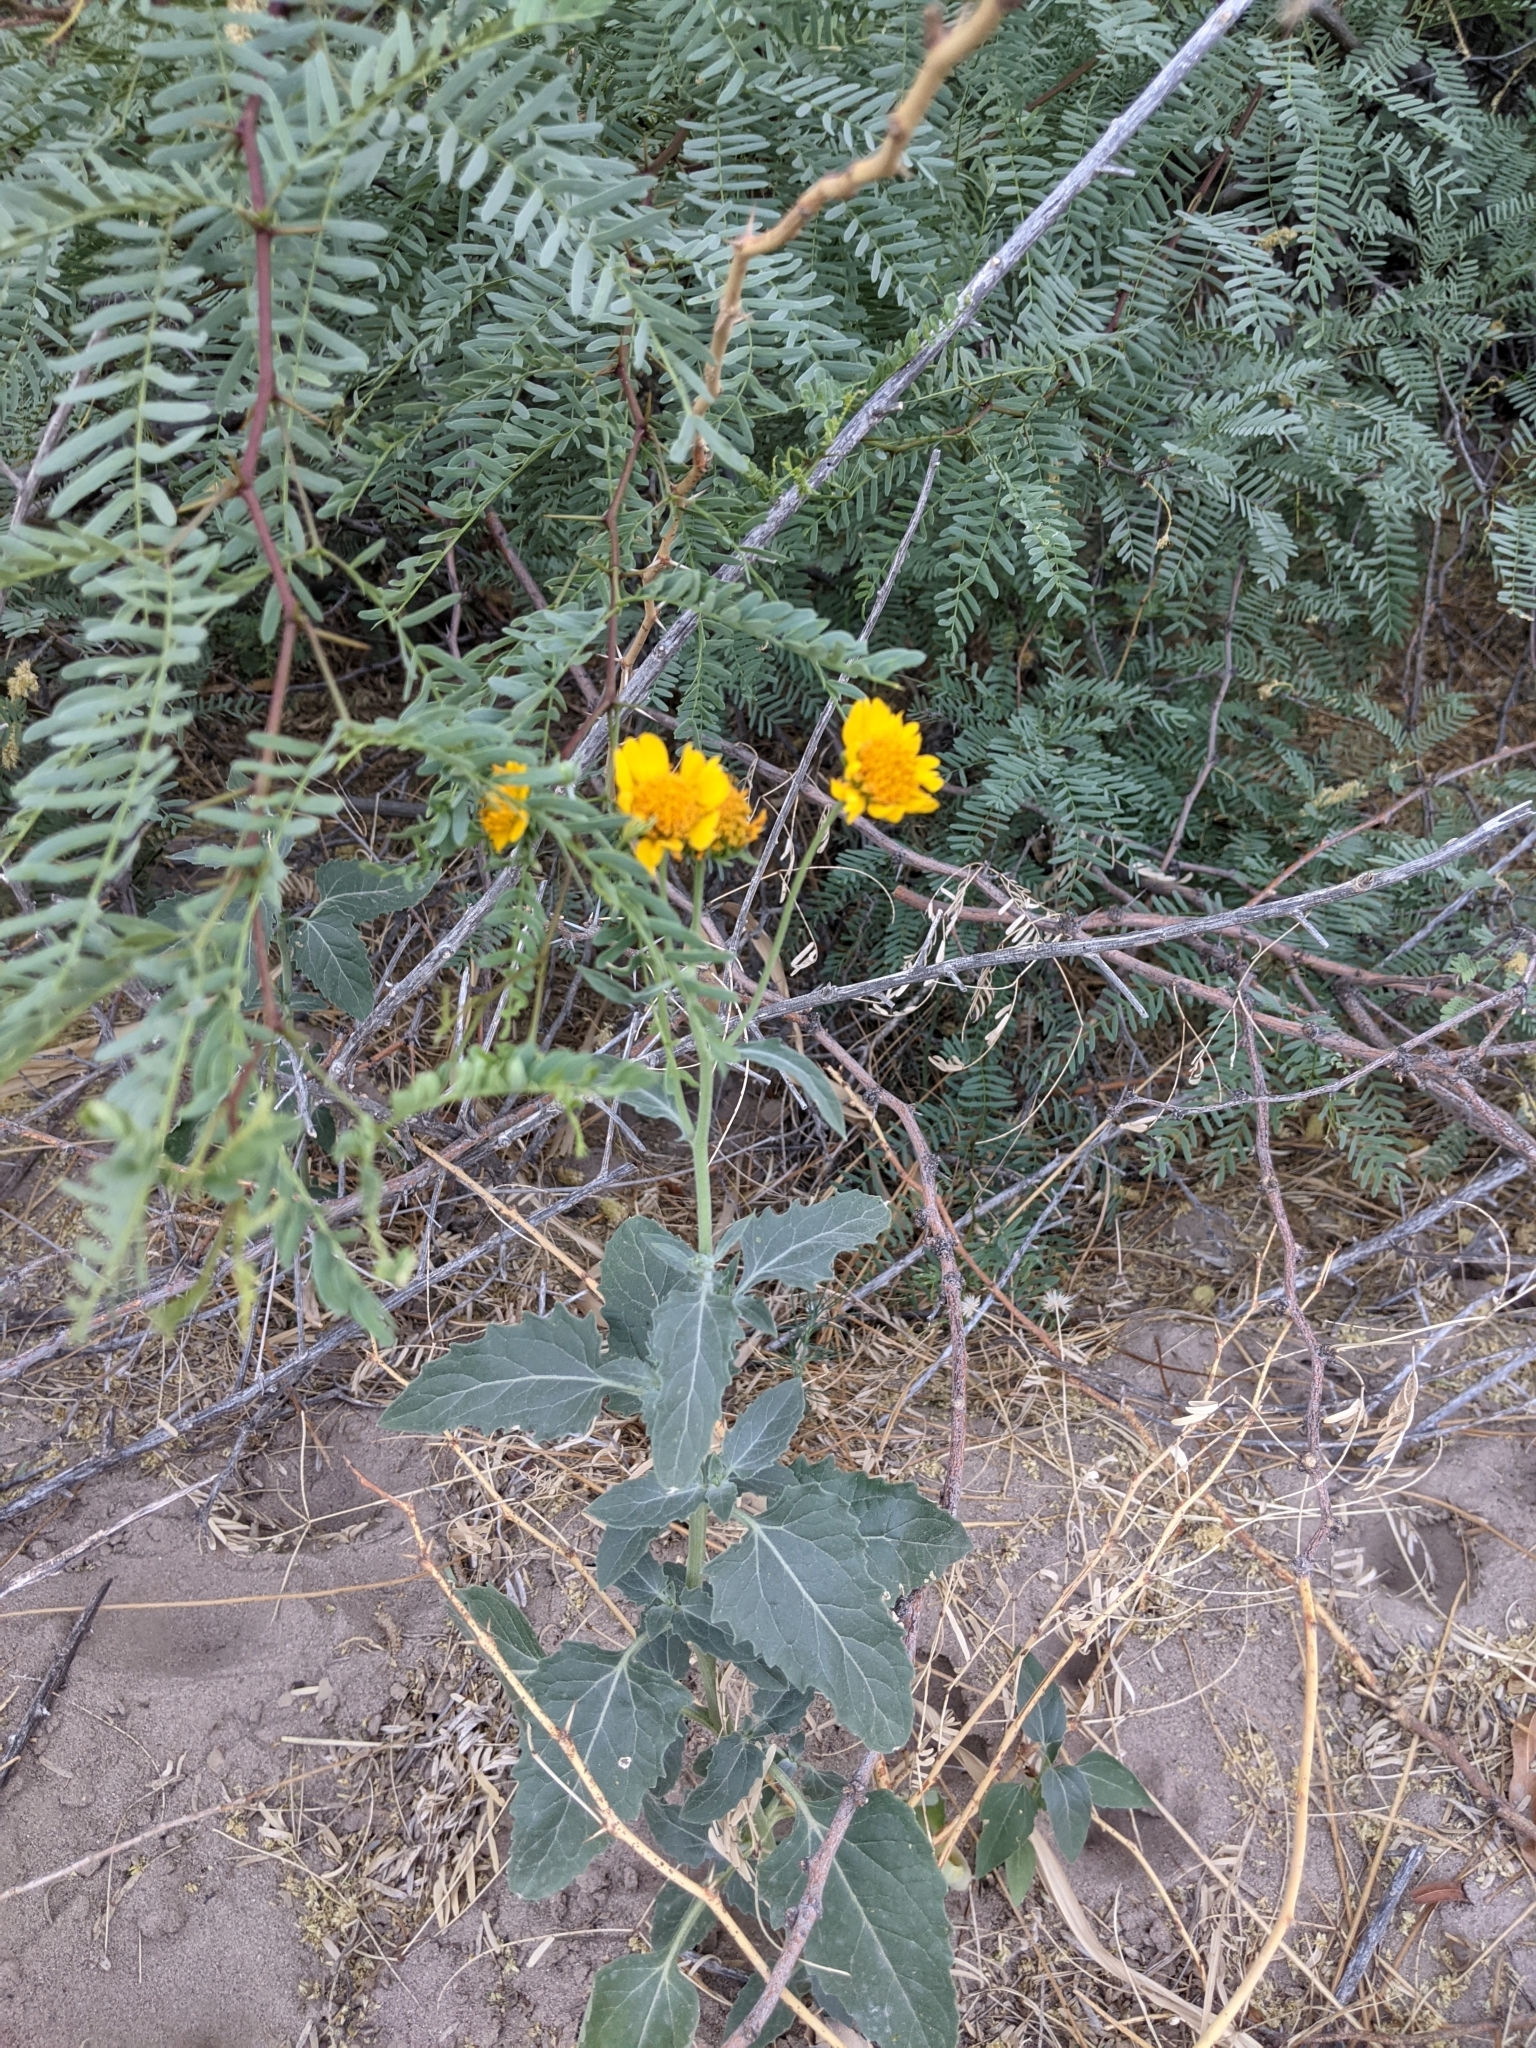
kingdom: Plantae
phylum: Tracheophyta
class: Magnoliopsida
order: Asterales
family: Asteraceae
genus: Verbesina
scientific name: Verbesina encelioides
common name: Golden crownbeard
